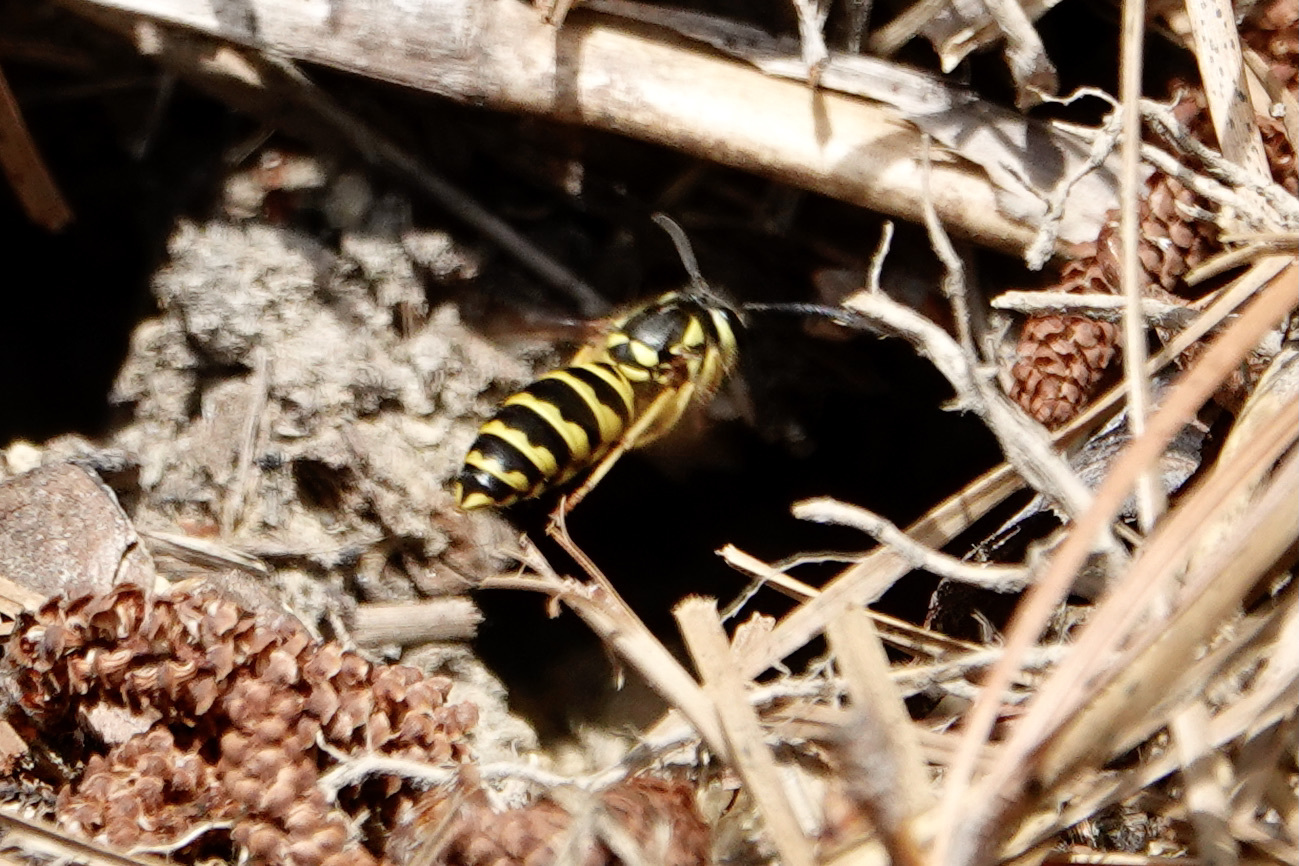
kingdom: Animalia
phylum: Arthropoda
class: Insecta
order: Hymenoptera
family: Vespidae
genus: Vespula
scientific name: Vespula maculifrons
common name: Eastern yellowjacket
